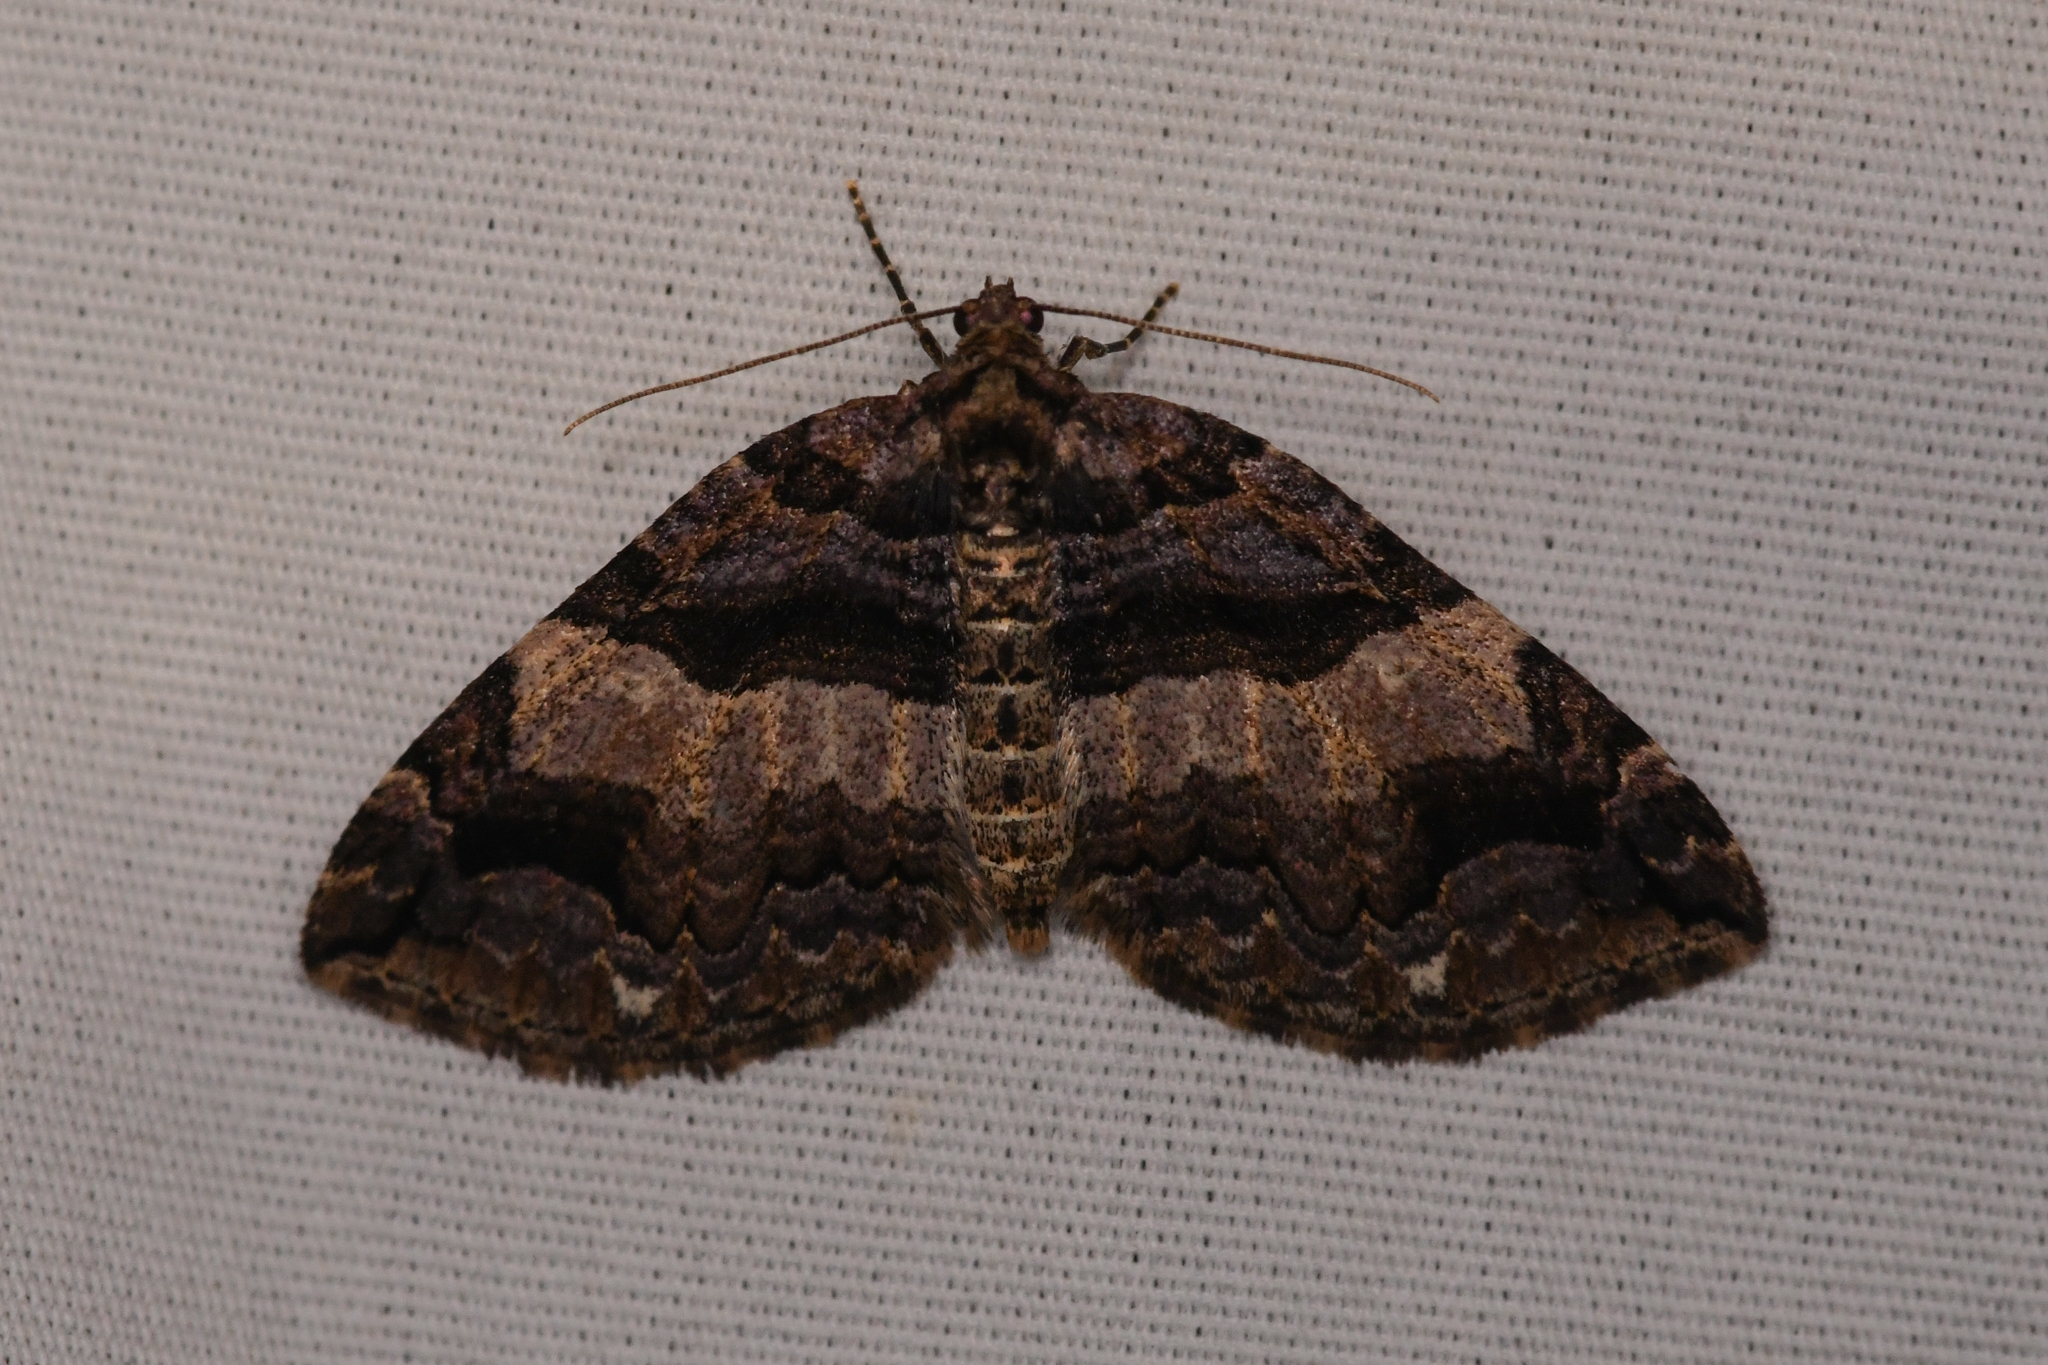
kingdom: Animalia
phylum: Arthropoda
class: Insecta
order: Lepidoptera
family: Geometridae
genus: Anticlea
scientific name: Anticlea vasiliata
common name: Variable carpet
